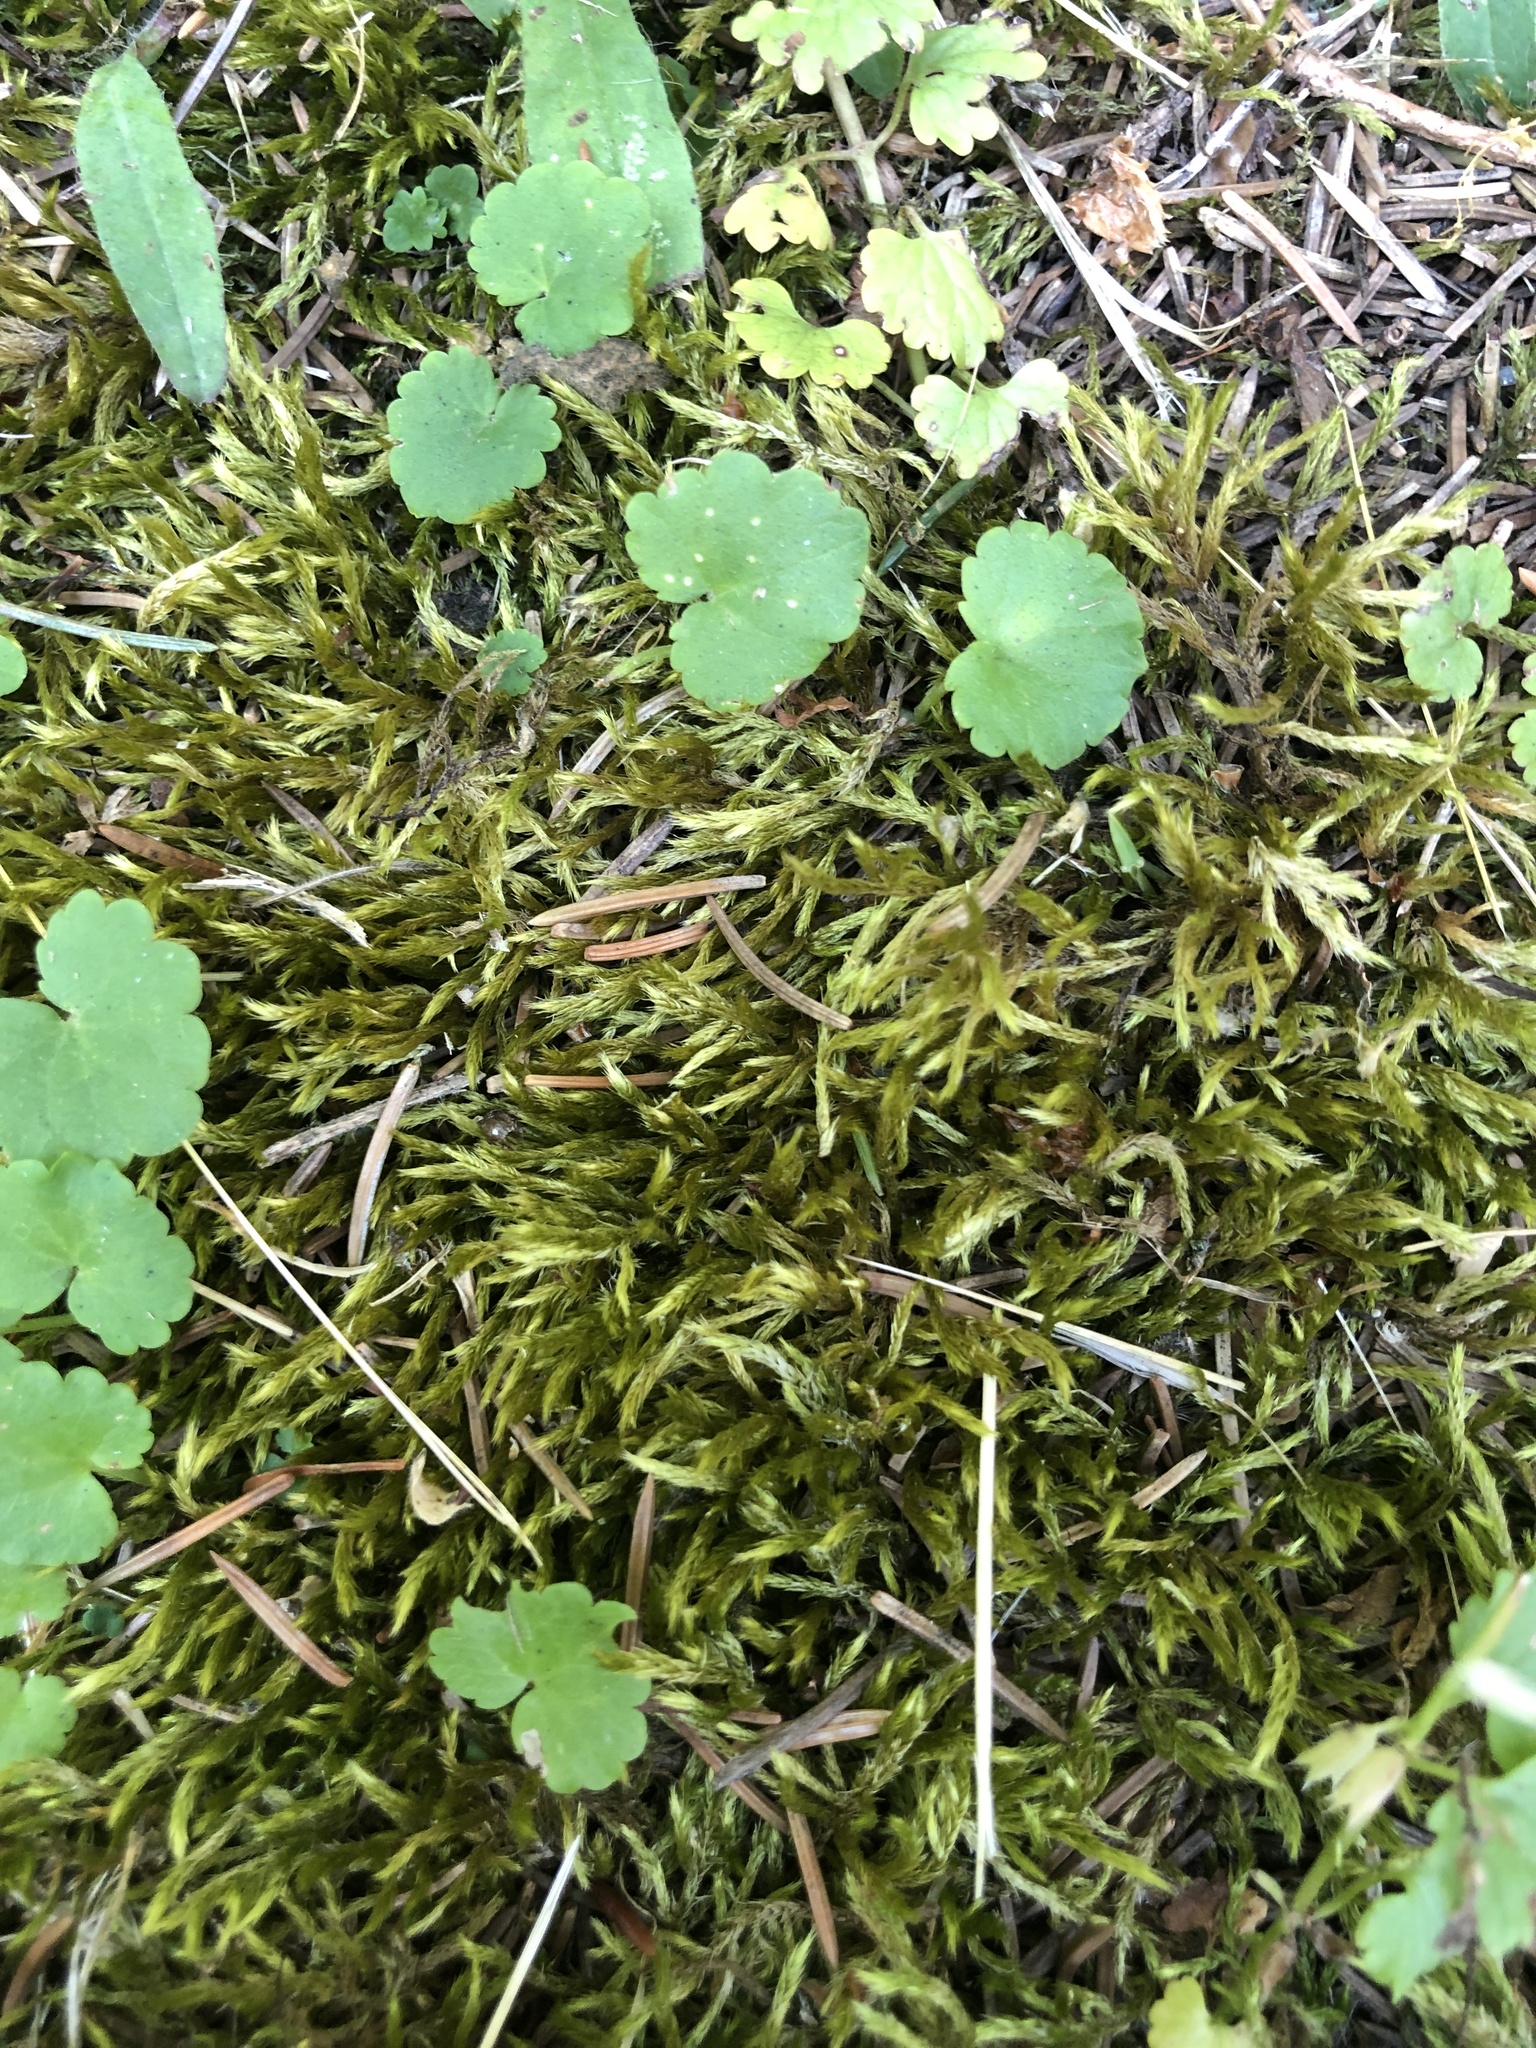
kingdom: Plantae
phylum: Bryophyta
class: Bryopsida
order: Hypnales
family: Brachytheciaceae
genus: Homalothecium
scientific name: Homalothecium lutescens
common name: Yellow feather-moss
